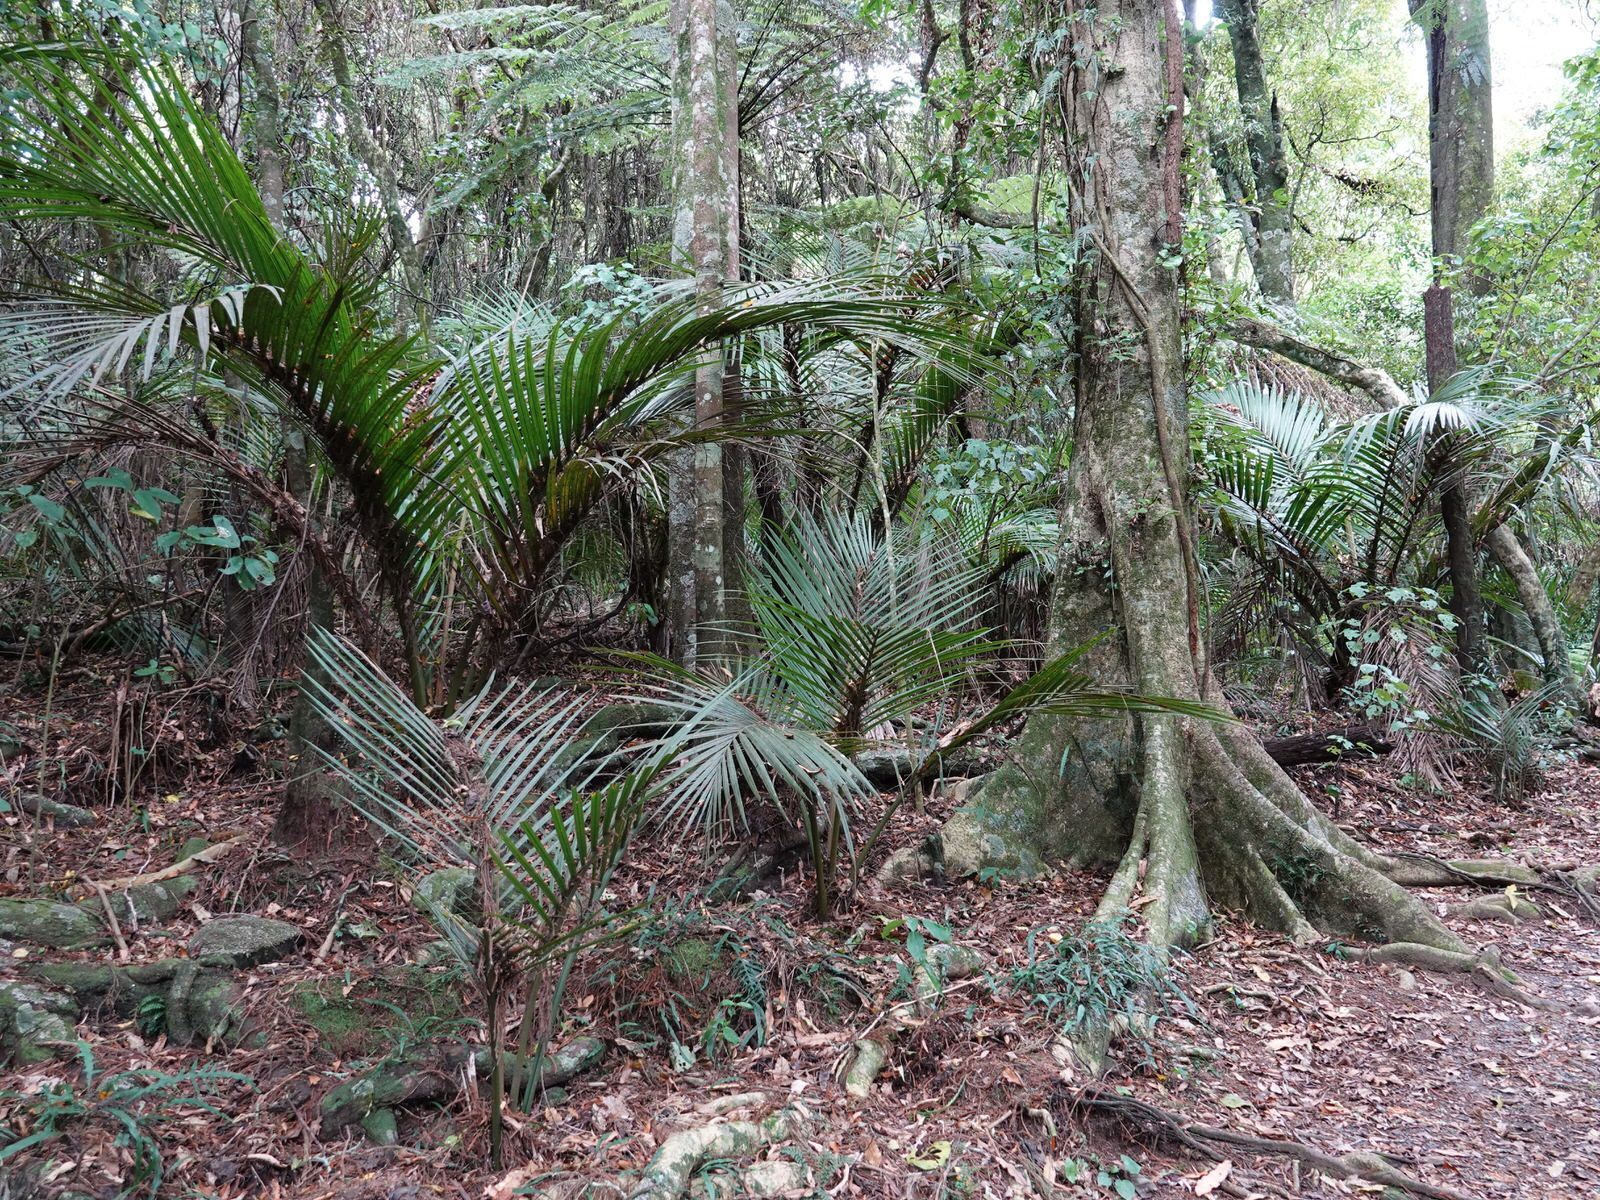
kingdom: Plantae
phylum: Tracheophyta
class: Liliopsida
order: Arecales
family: Arecaceae
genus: Rhopalostylis
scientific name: Rhopalostylis sapida
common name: Feather-duster palm
